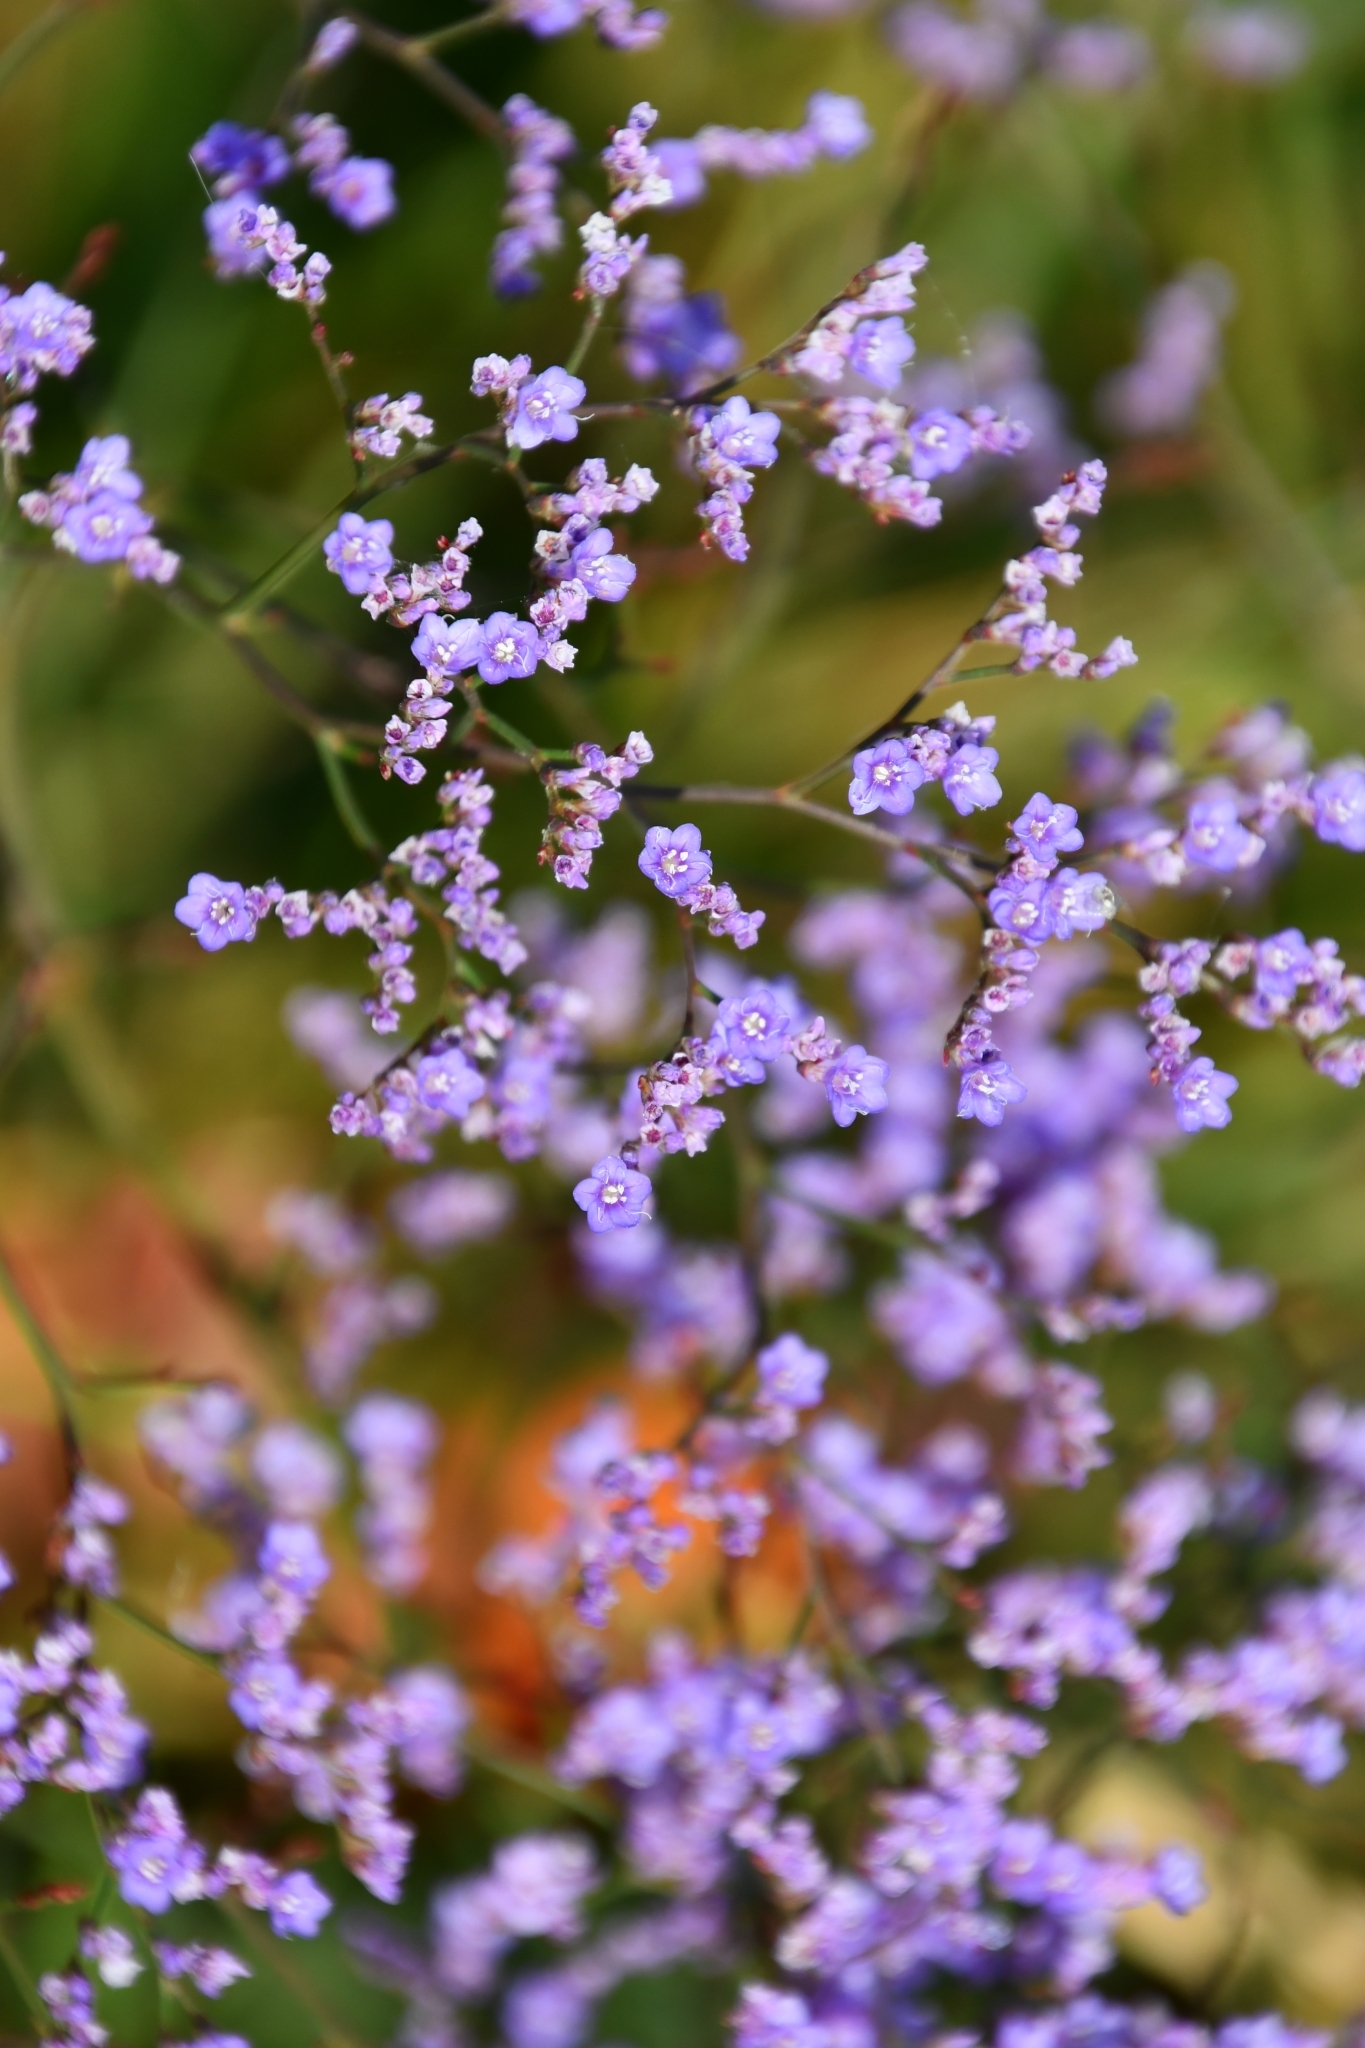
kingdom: Plantae
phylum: Tracheophyta
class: Magnoliopsida
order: Caryophyllales
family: Plumbaginaceae
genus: Limonium
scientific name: Limonium gmelini
